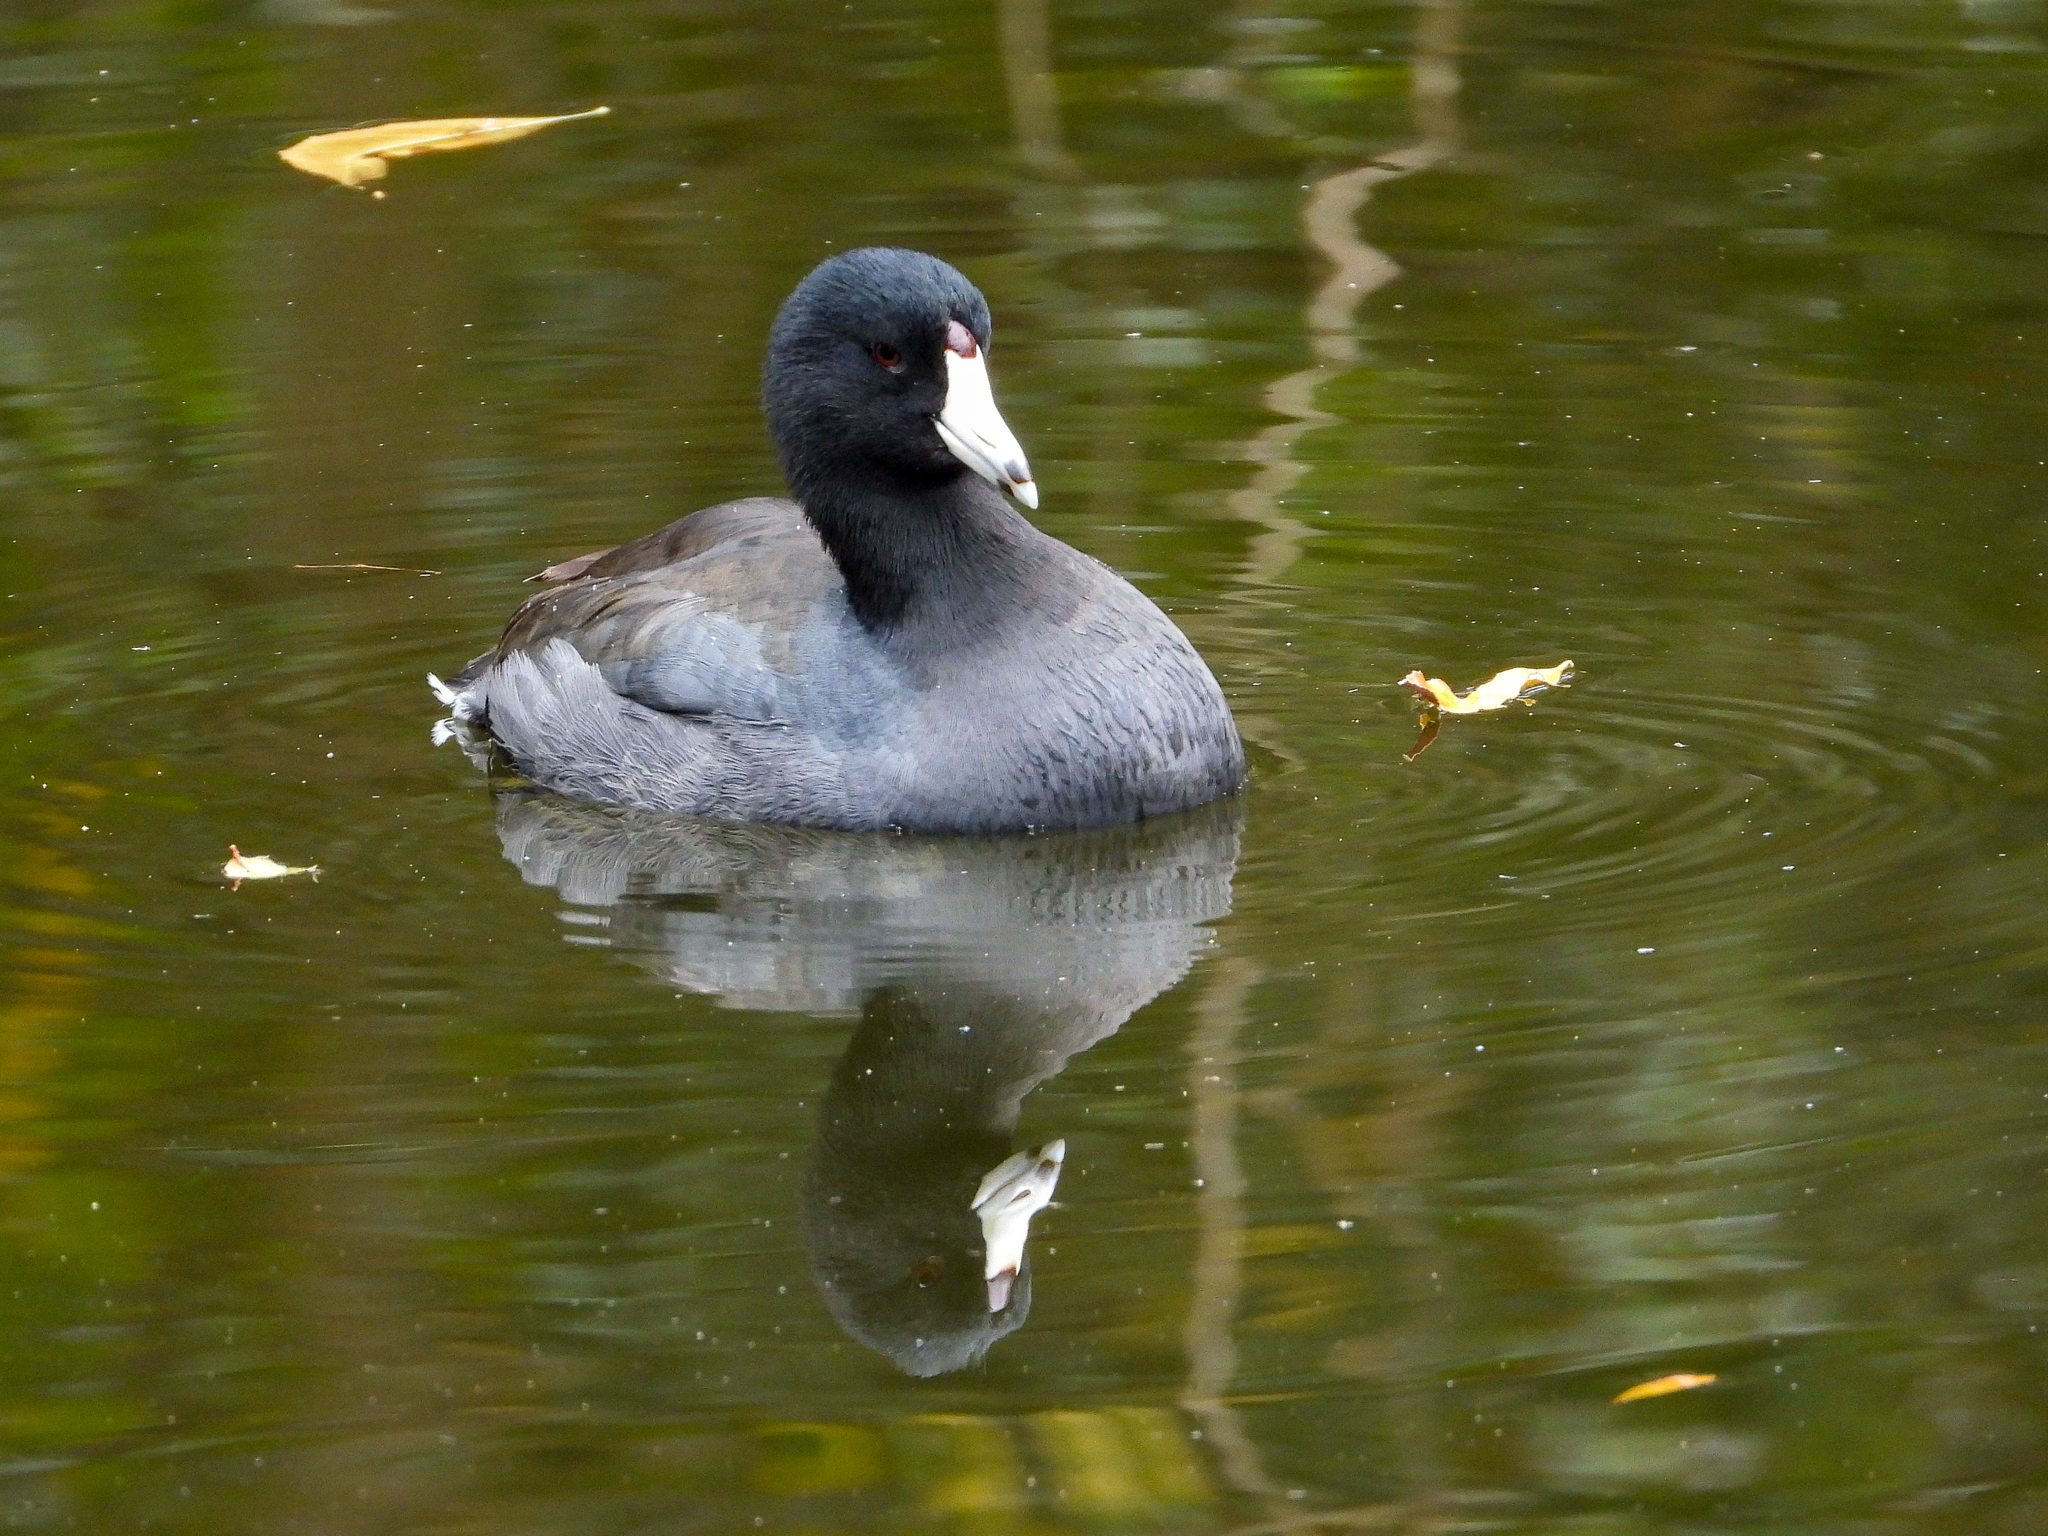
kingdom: Animalia
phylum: Chordata
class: Aves
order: Gruiformes
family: Rallidae
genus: Fulica
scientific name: Fulica americana
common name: American coot
